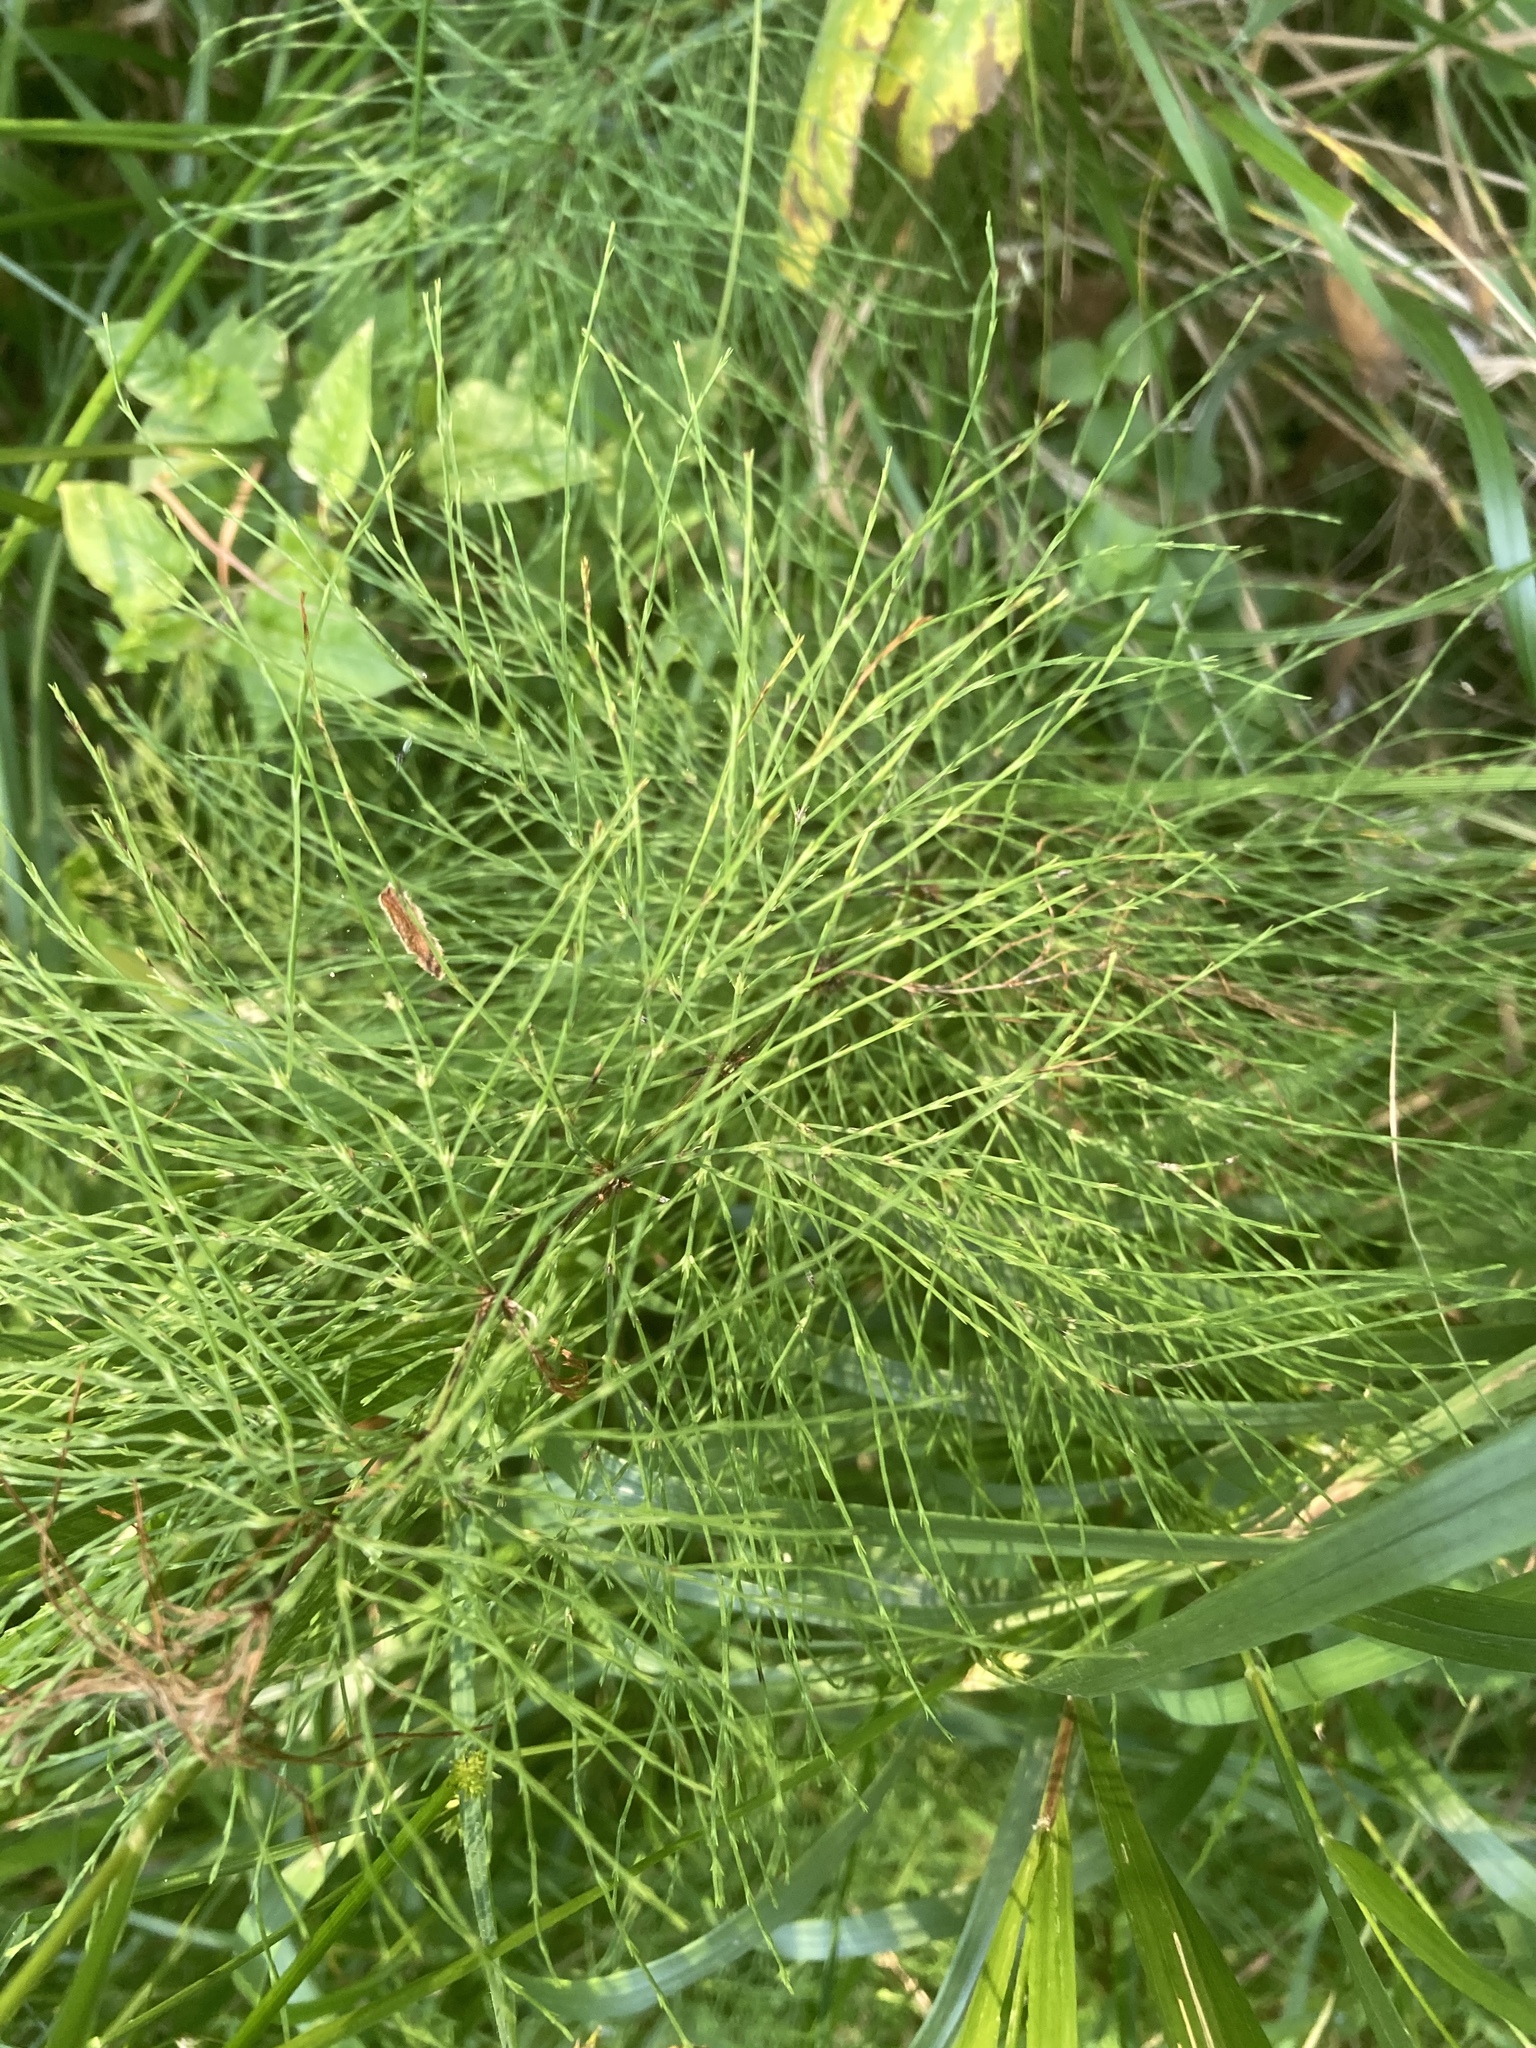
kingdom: Plantae
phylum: Tracheophyta
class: Polypodiopsida
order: Equisetales
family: Equisetaceae
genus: Equisetum
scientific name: Equisetum sylvaticum
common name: Wood horsetail
